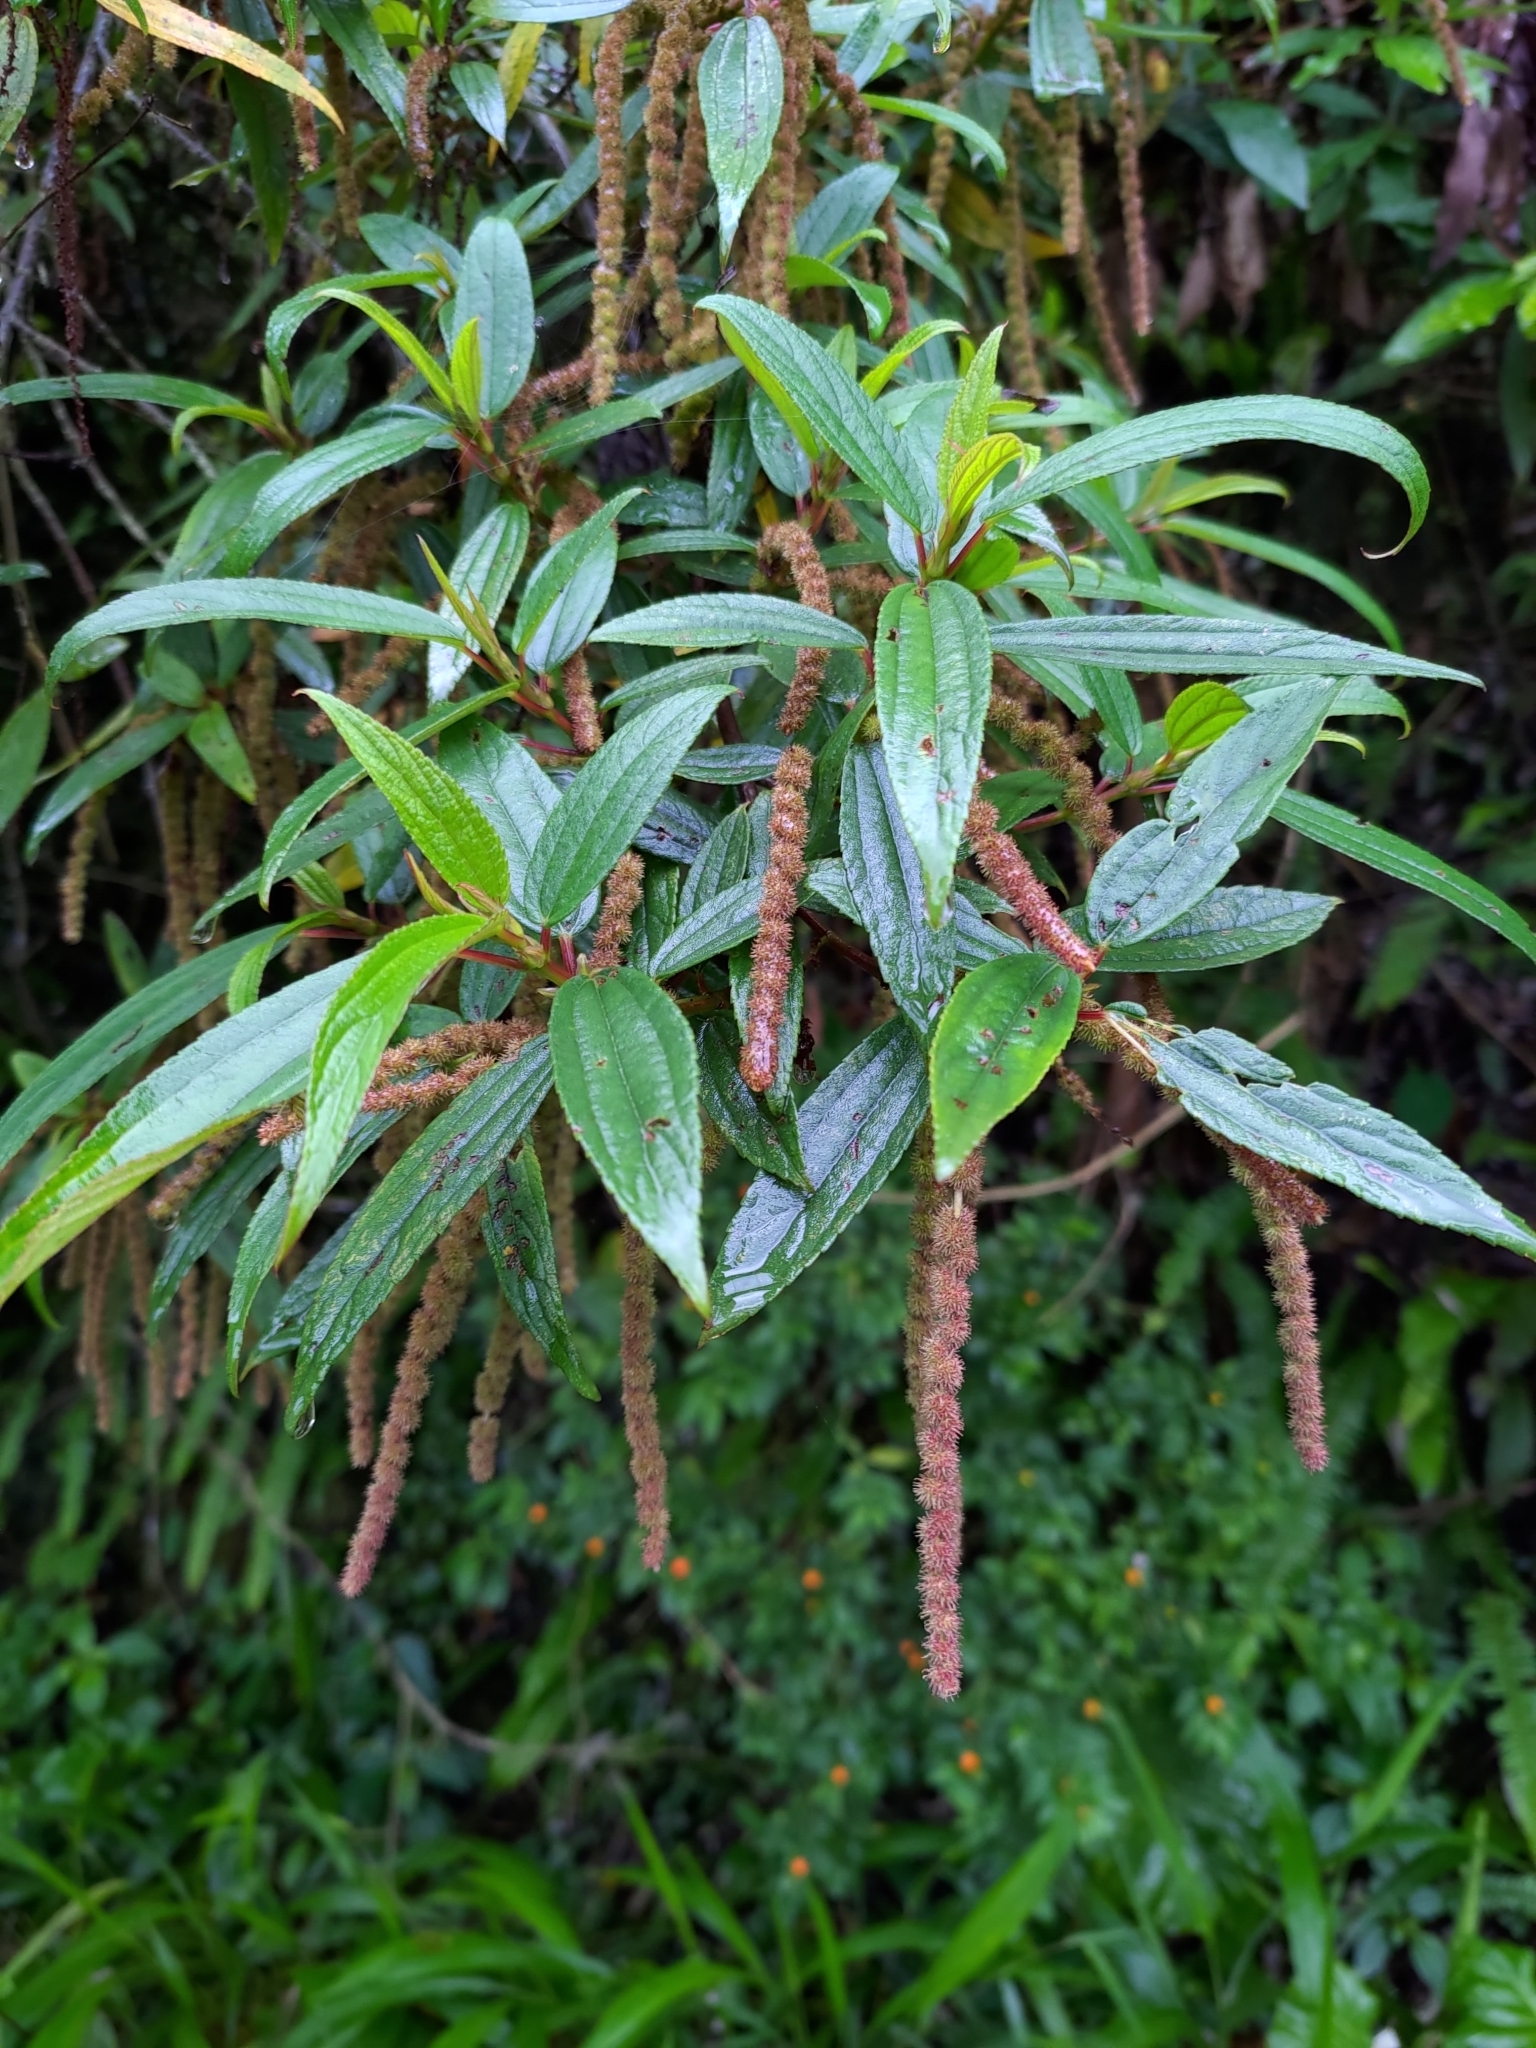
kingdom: Plantae
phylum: Tracheophyta
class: Magnoliopsida
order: Rosales
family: Urticaceae
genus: Boehmeria
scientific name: Boehmeria densiflora
